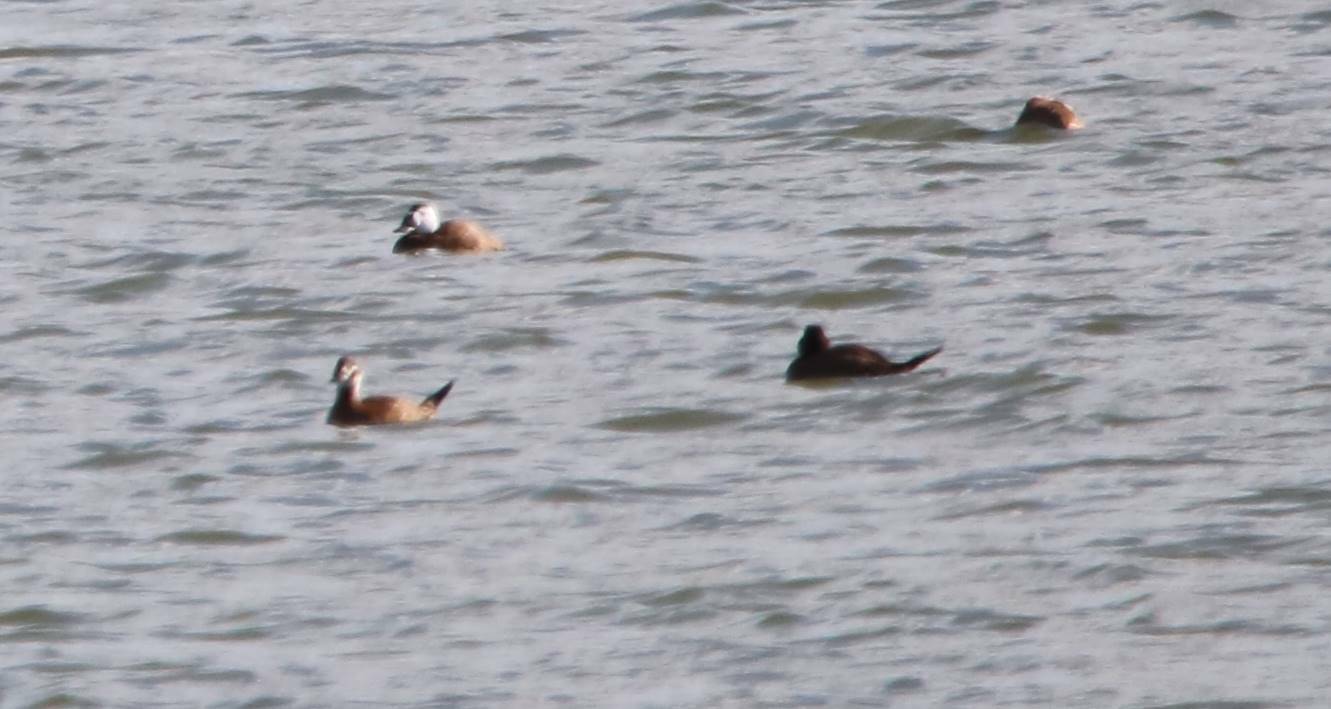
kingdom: Animalia
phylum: Chordata
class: Aves
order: Anseriformes
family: Anatidae
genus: Oxyura
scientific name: Oxyura leucocephala
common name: White-headed duck
